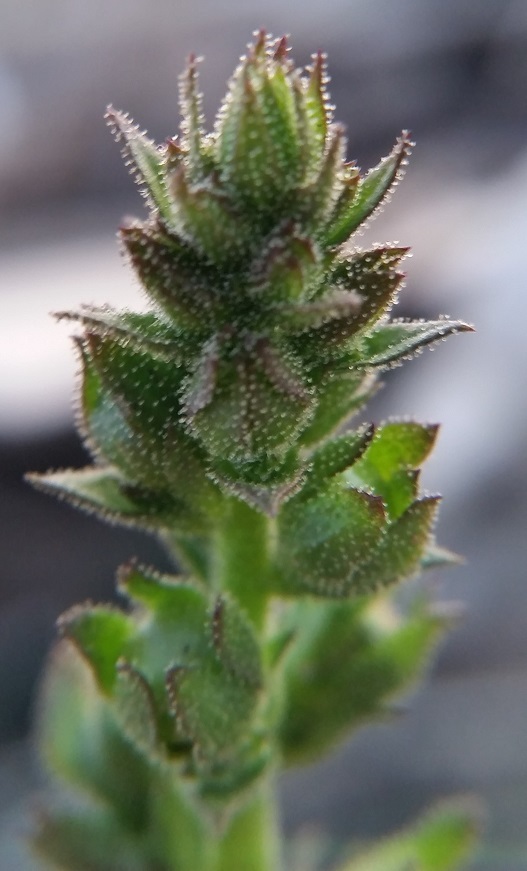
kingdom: Plantae
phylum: Tracheophyta
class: Magnoliopsida
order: Lamiales
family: Scrophulariaceae
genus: Verbascum
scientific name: Verbascum virgatum
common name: Twiggy mullein
